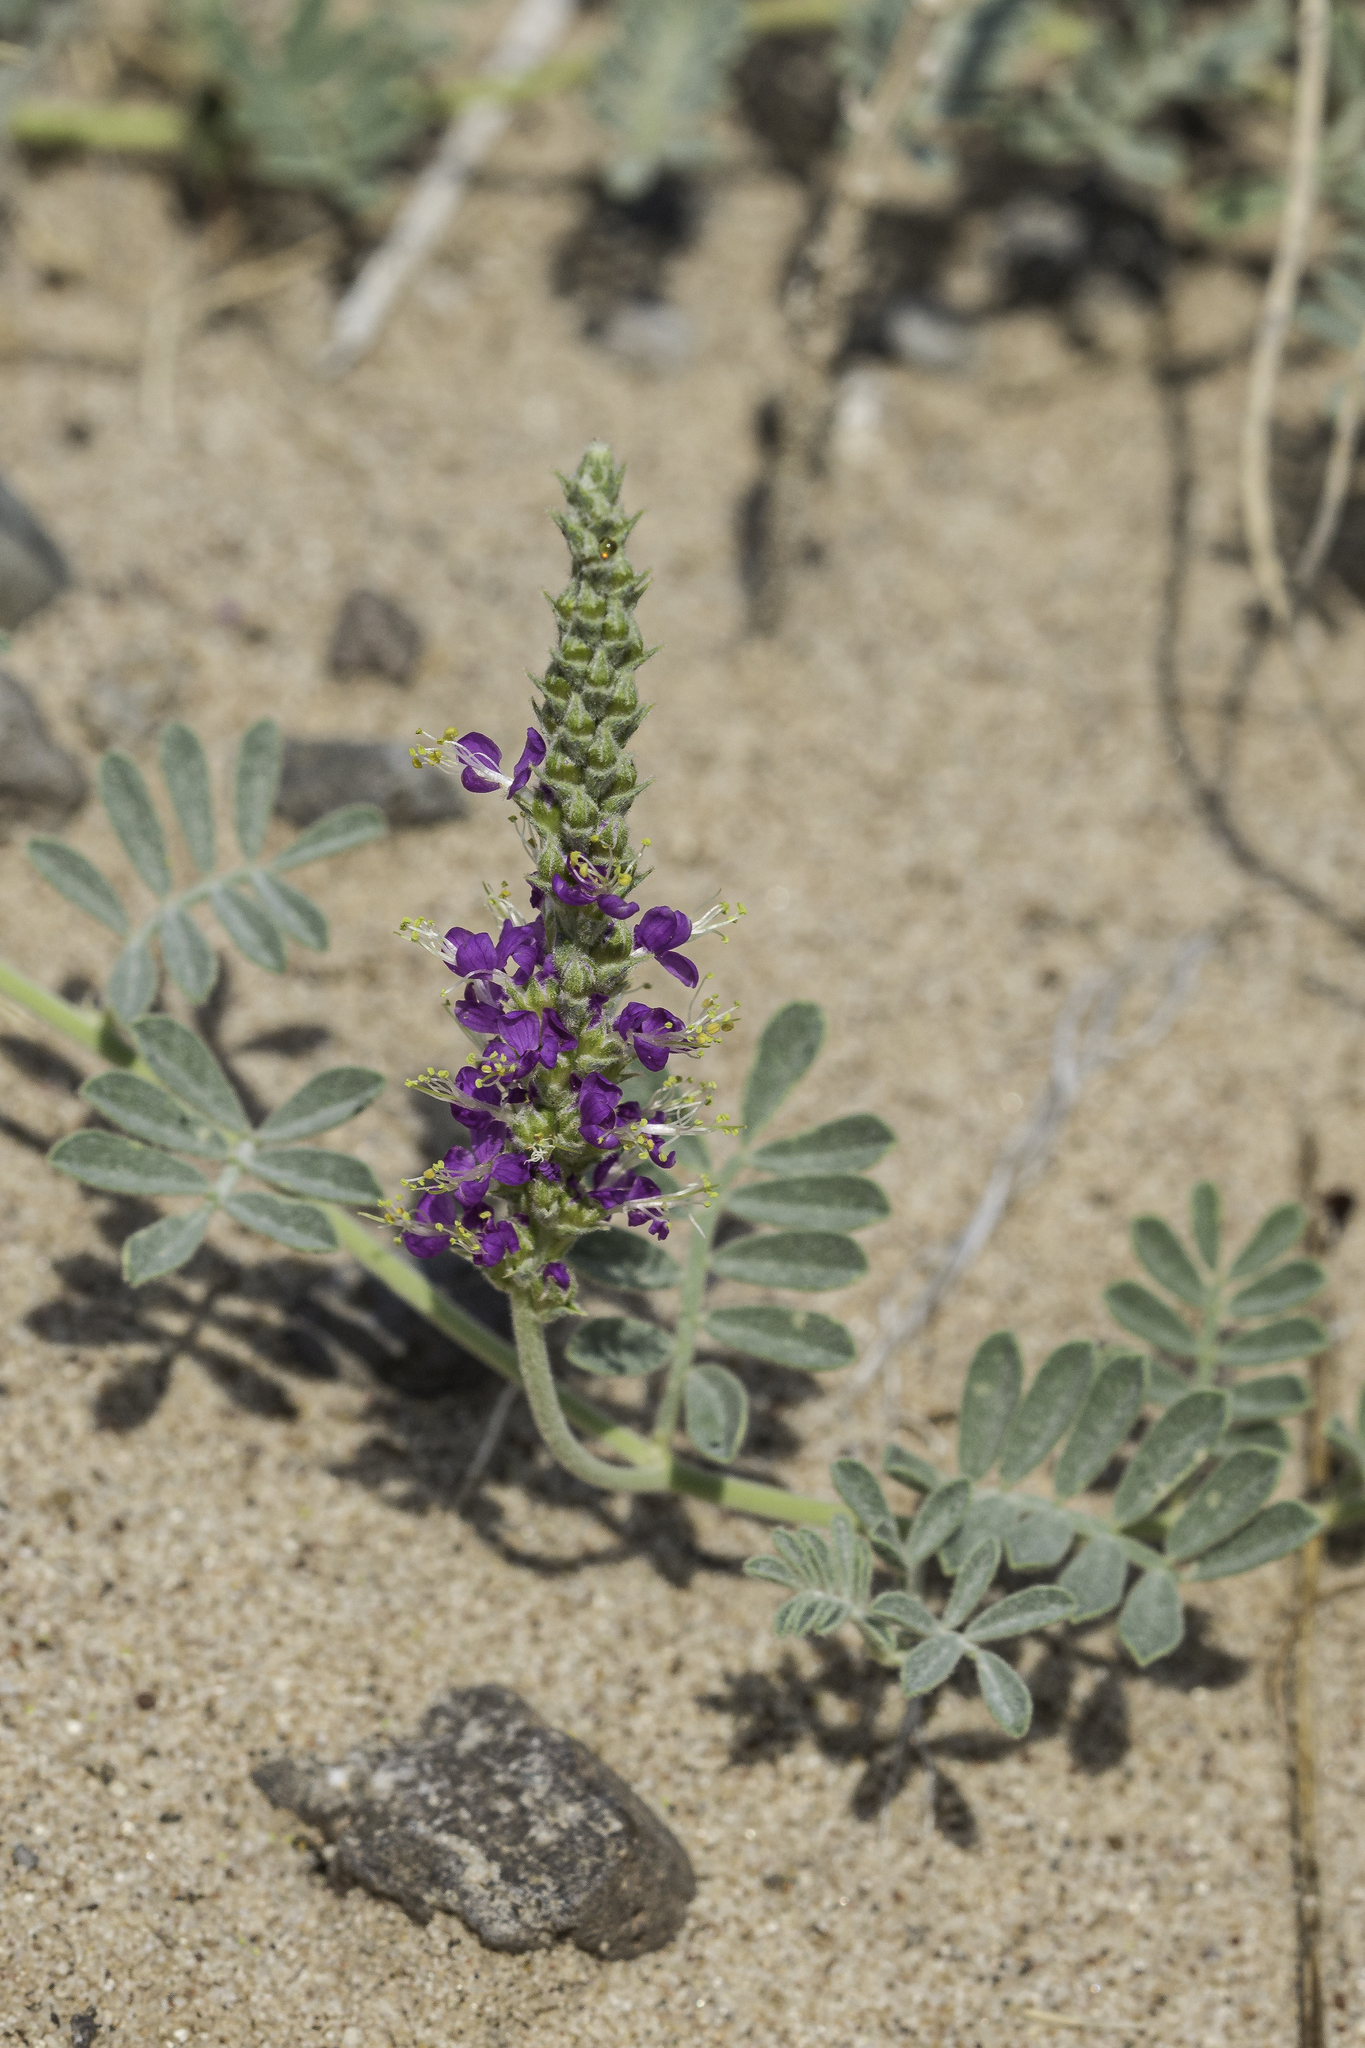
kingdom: Plantae
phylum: Tracheophyta
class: Magnoliopsida
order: Fabales
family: Fabaceae
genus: Dalea
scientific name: Dalea lanata
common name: Woolly dalea
